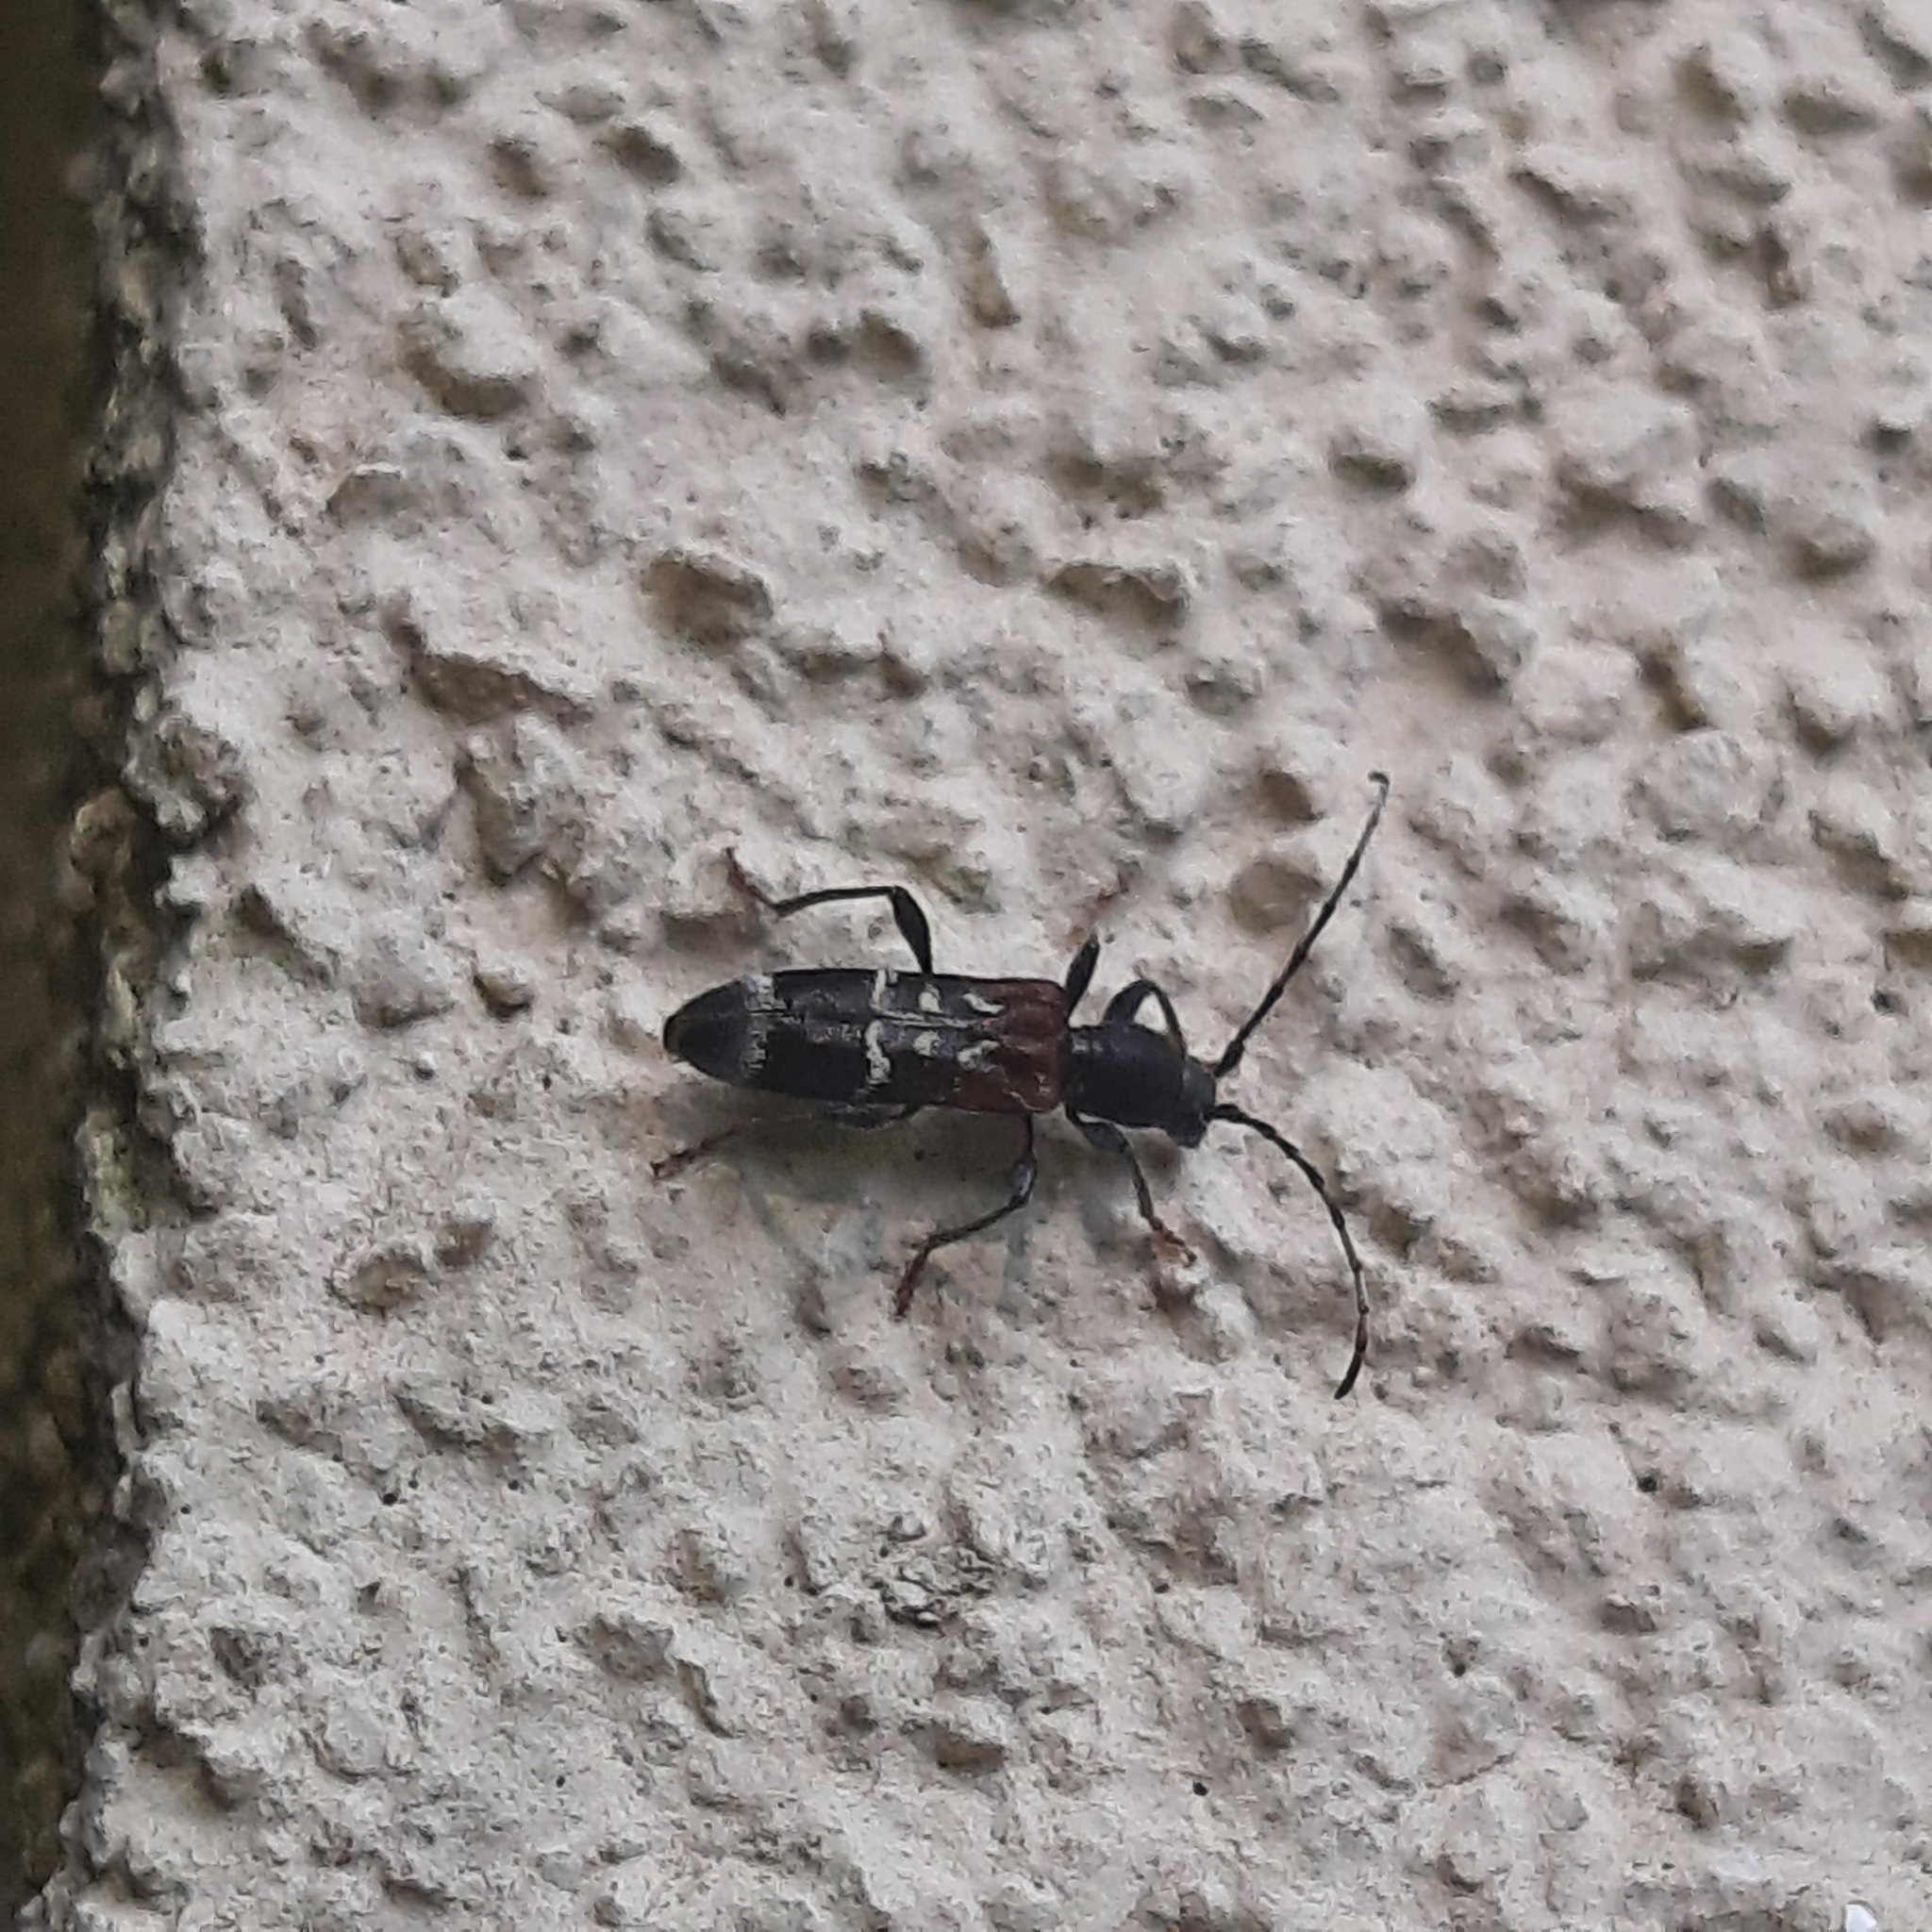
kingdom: Animalia
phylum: Arthropoda
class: Insecta
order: Coleoptera
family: Cerambycidae
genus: Anaglyptus
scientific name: Anaglyptus mysticus
